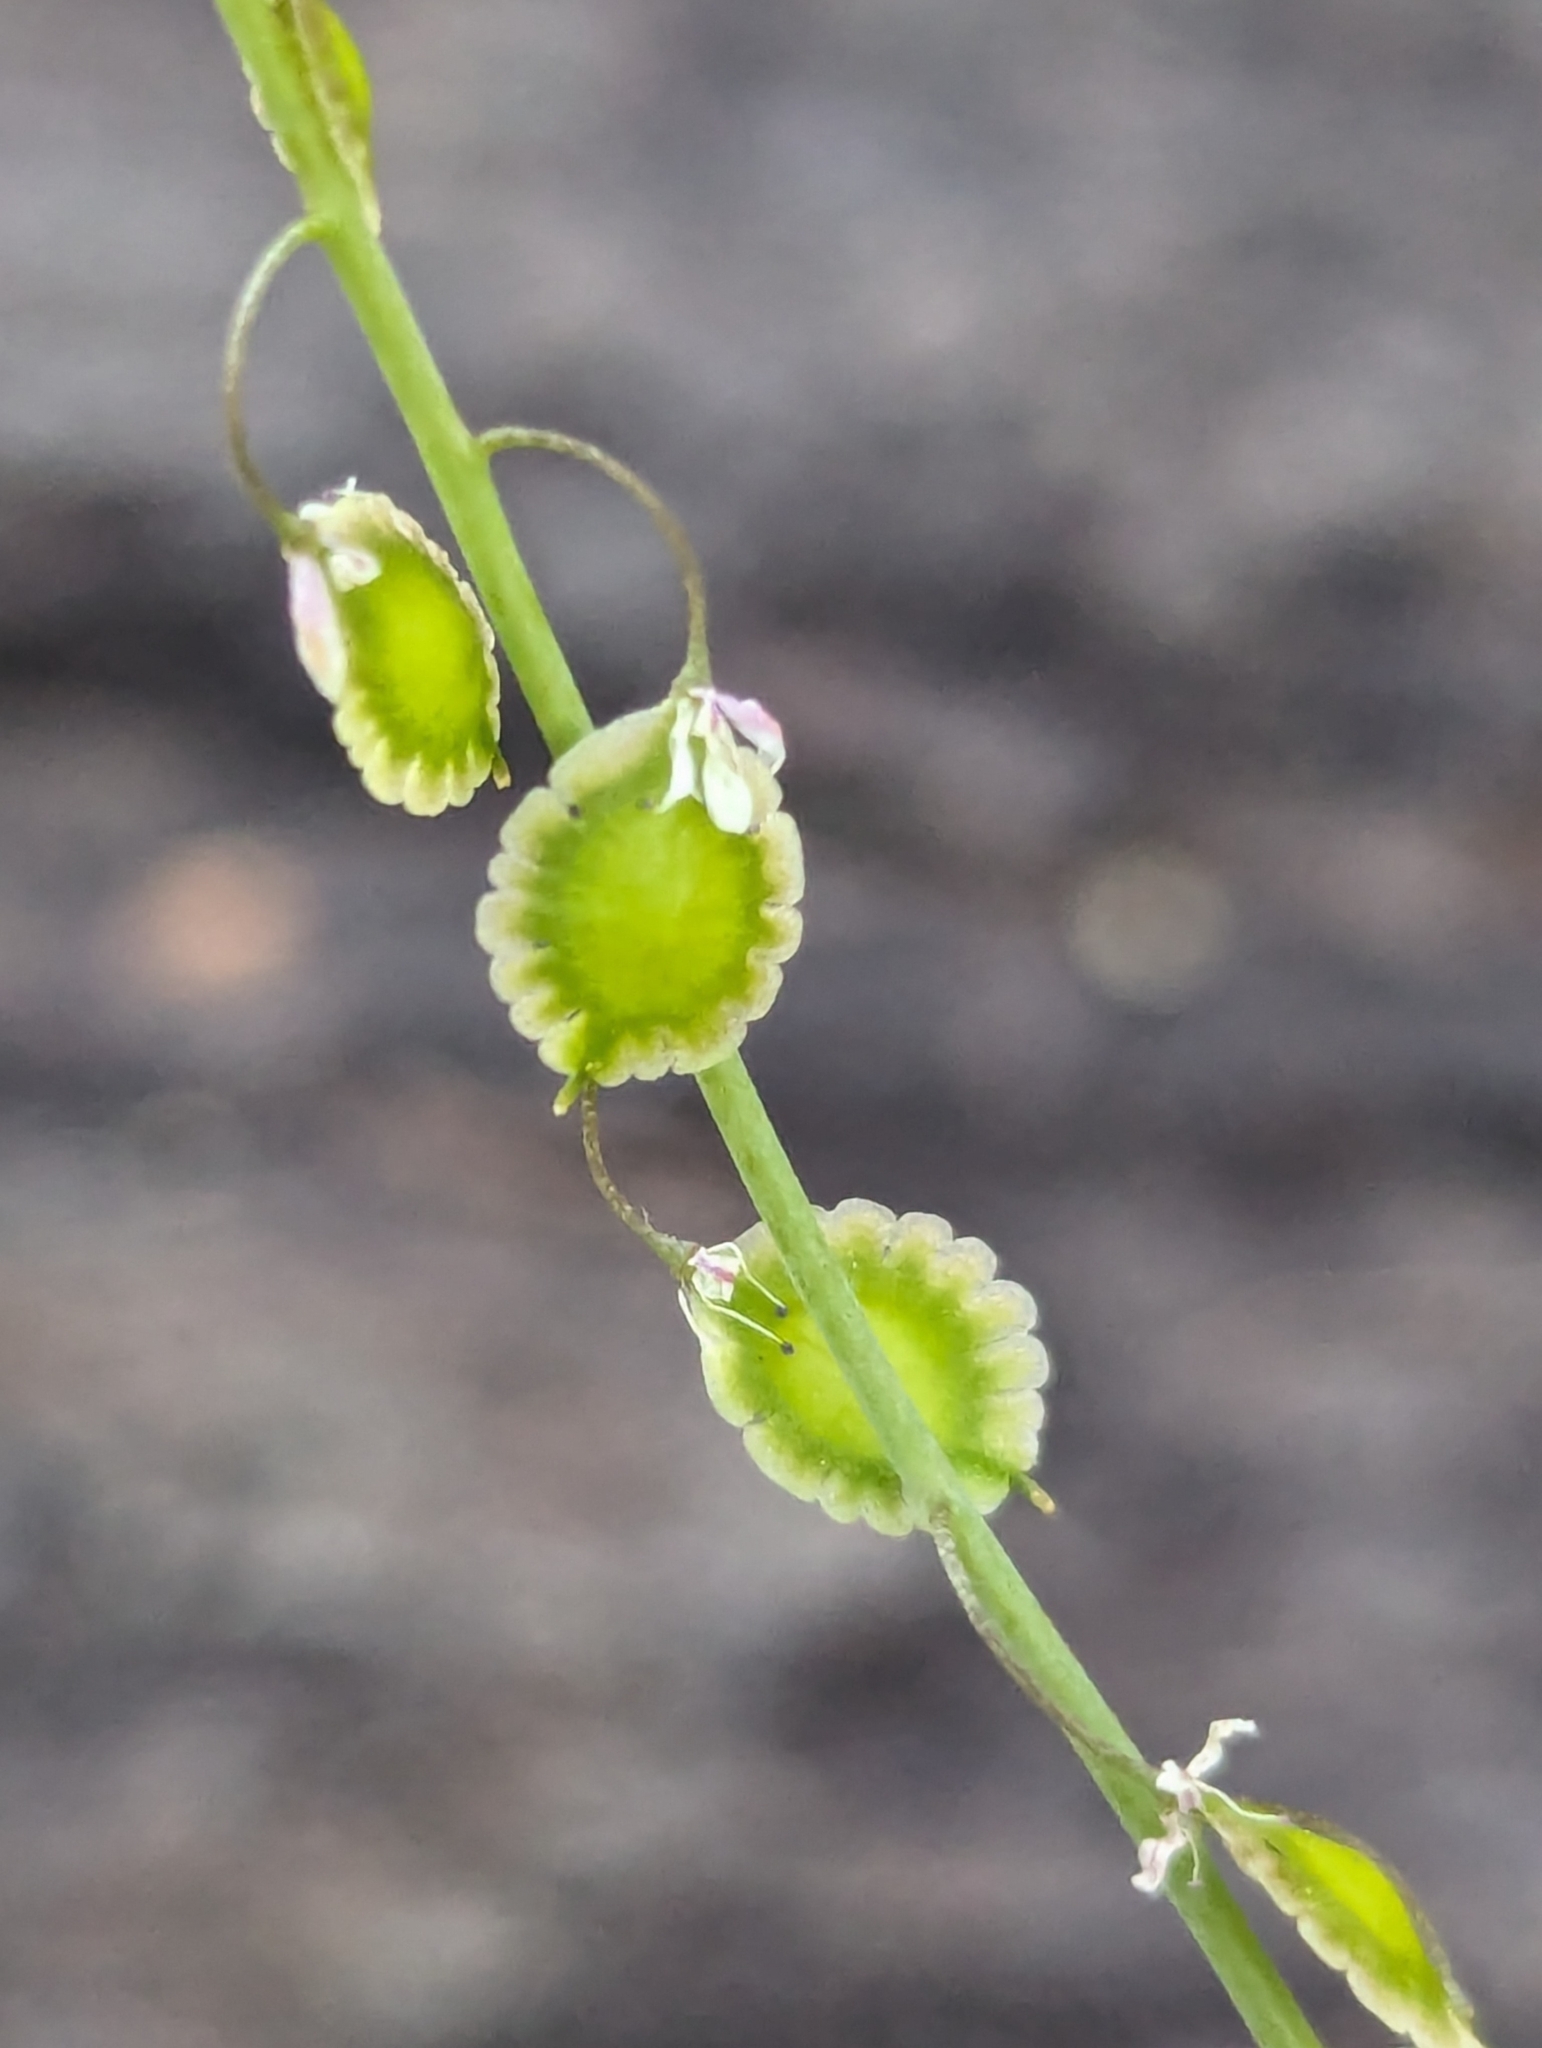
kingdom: Plantae
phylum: Tracheophyta
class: Magnoliopsida
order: Brassicales
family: Brassicaceae
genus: Thysanocarpus
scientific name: Thysanocarpus curvipes
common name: Sand fringepod
